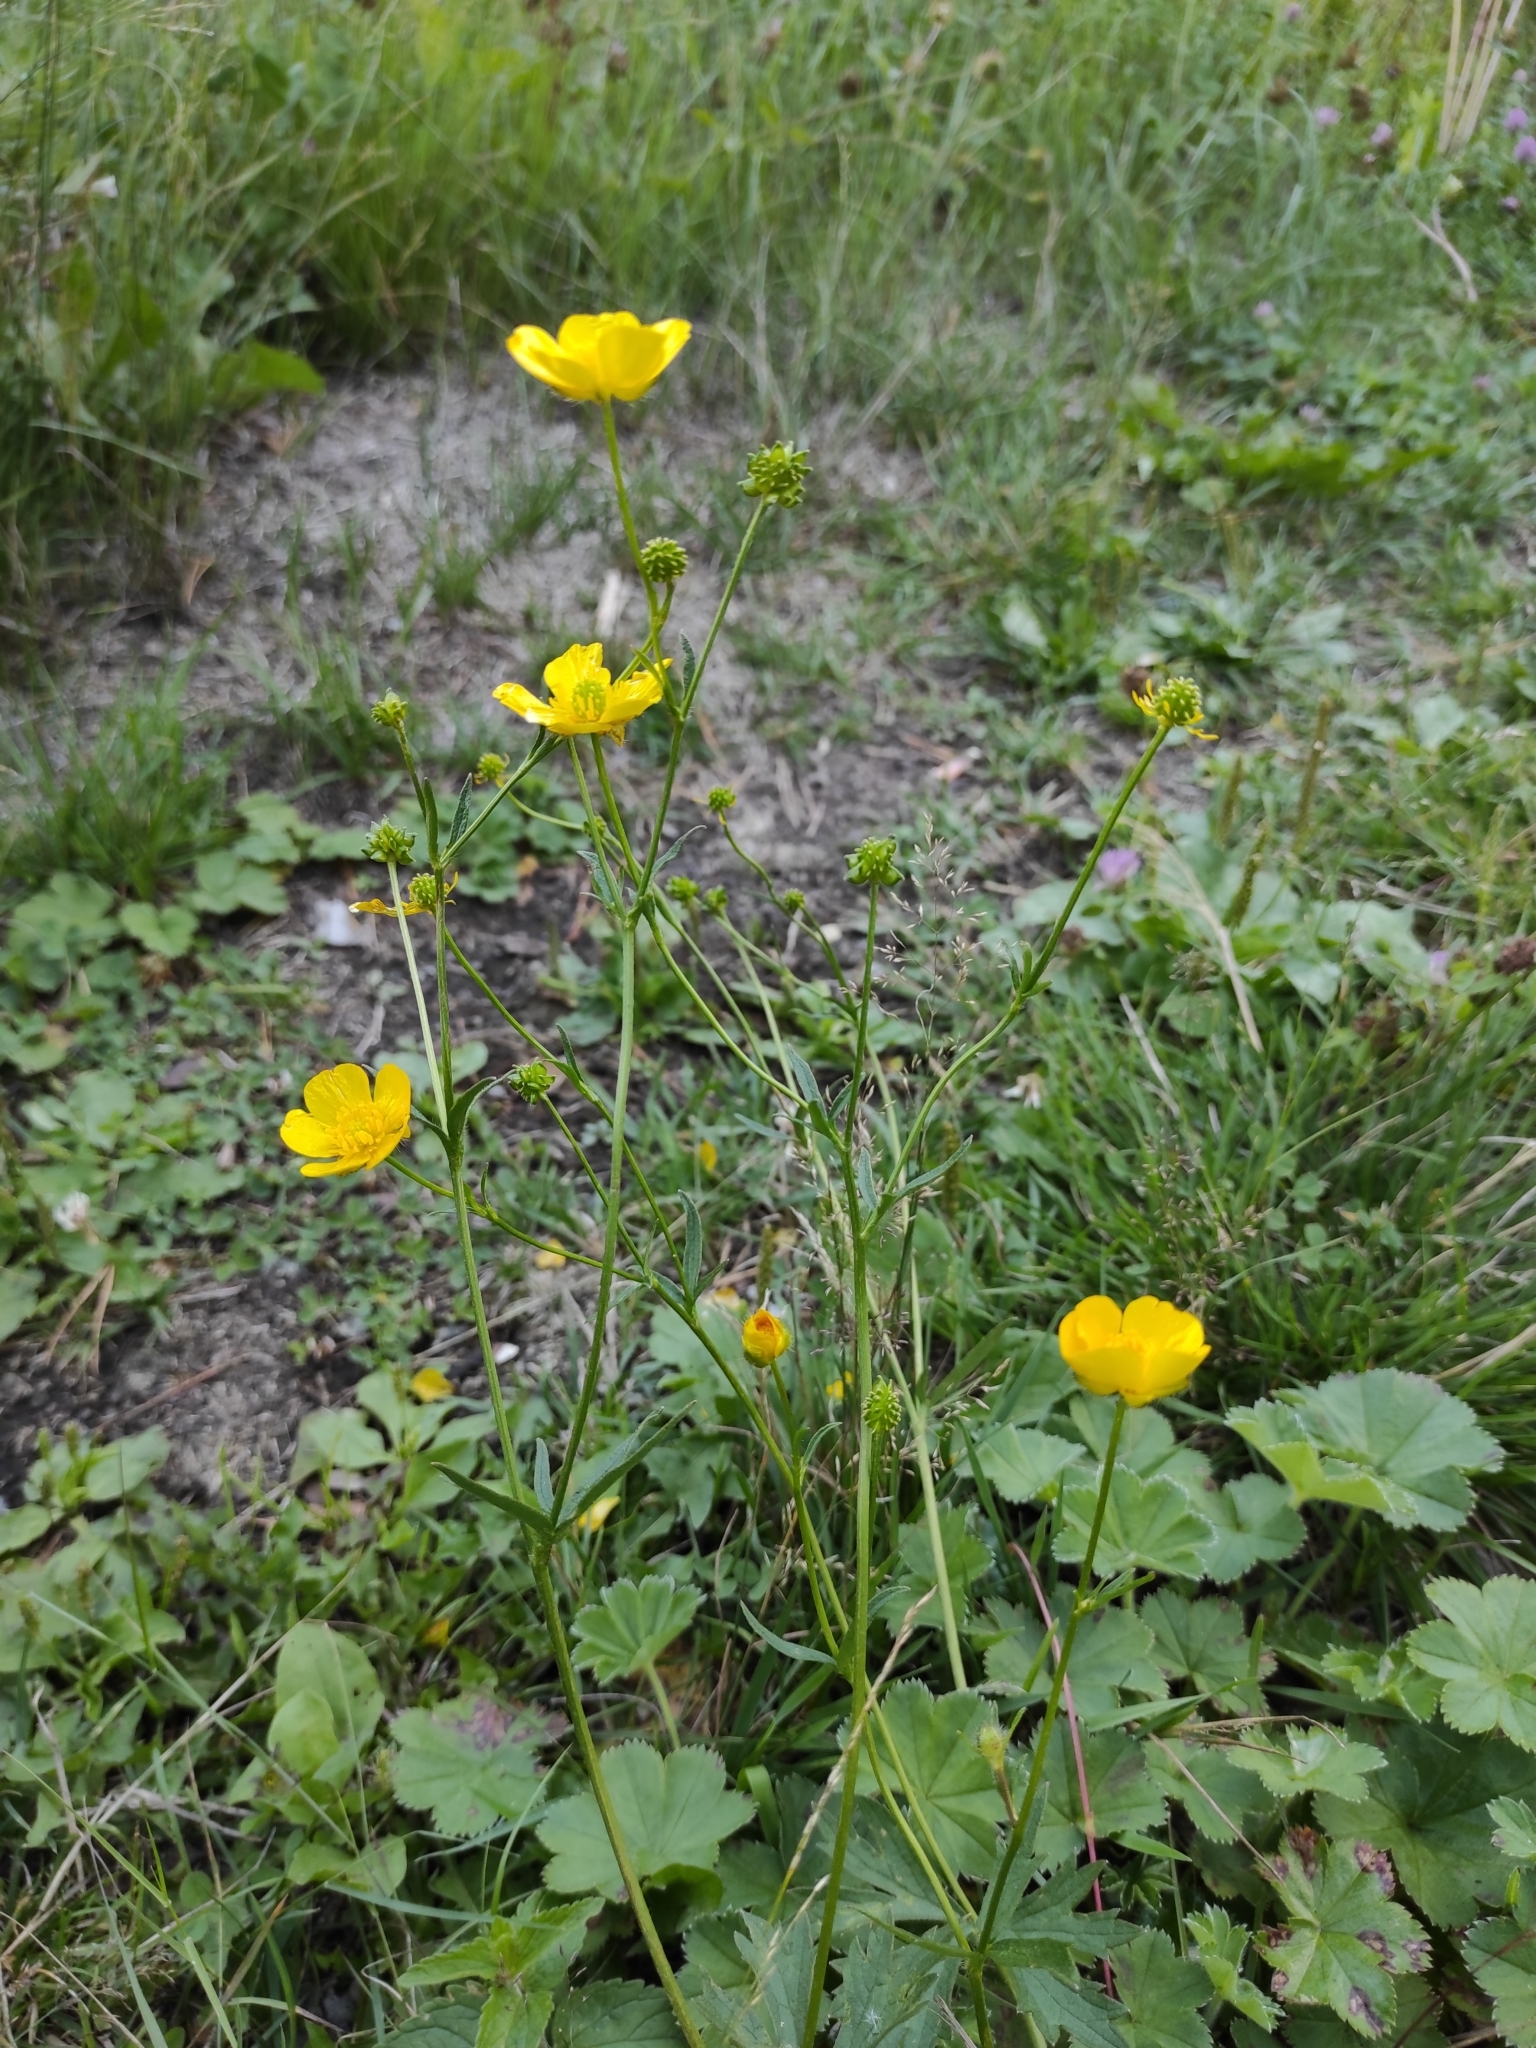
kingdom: Plantae
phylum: Tracheophyta
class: Magnoliopsida
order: Ranunculales
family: Ranunculaceae
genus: Ranunculus
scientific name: Ranunculus polyanthemos
